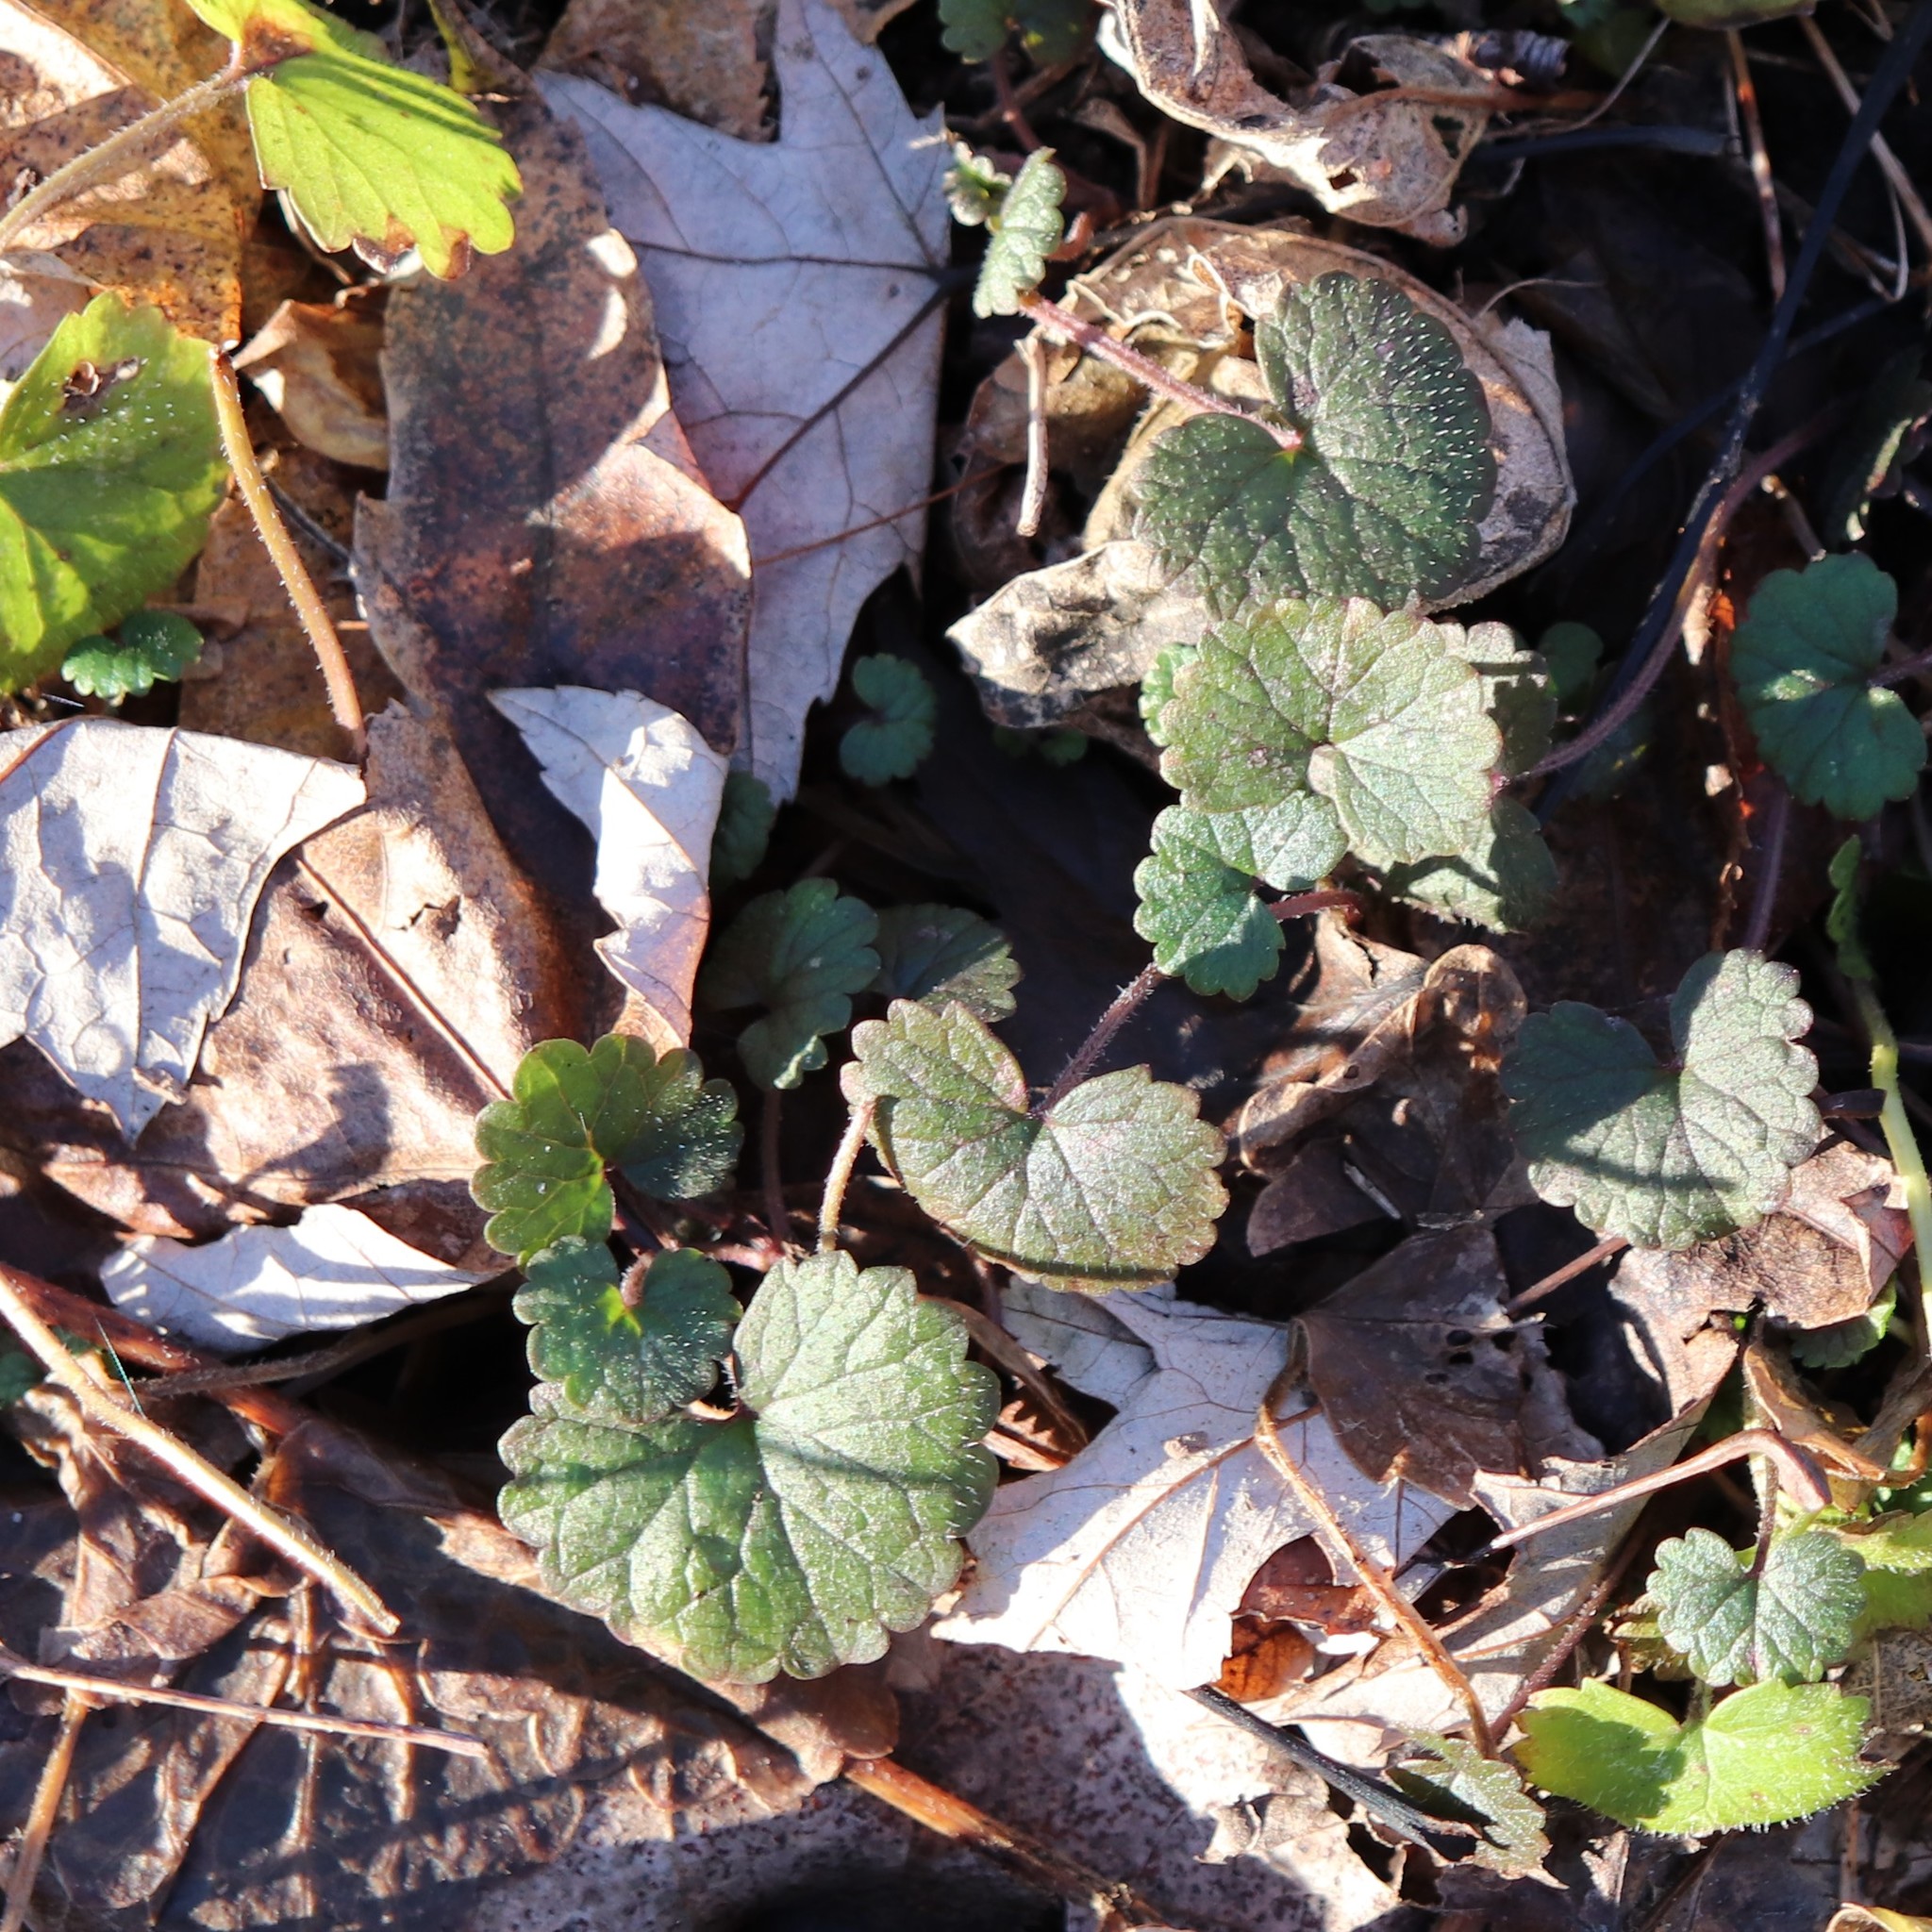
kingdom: Plantae
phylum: Tracheophyta
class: Magnoliopsida
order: Lamiales
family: Lamiaceae
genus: Glechoma
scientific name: Glechoma hederacea
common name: Ground ivy
